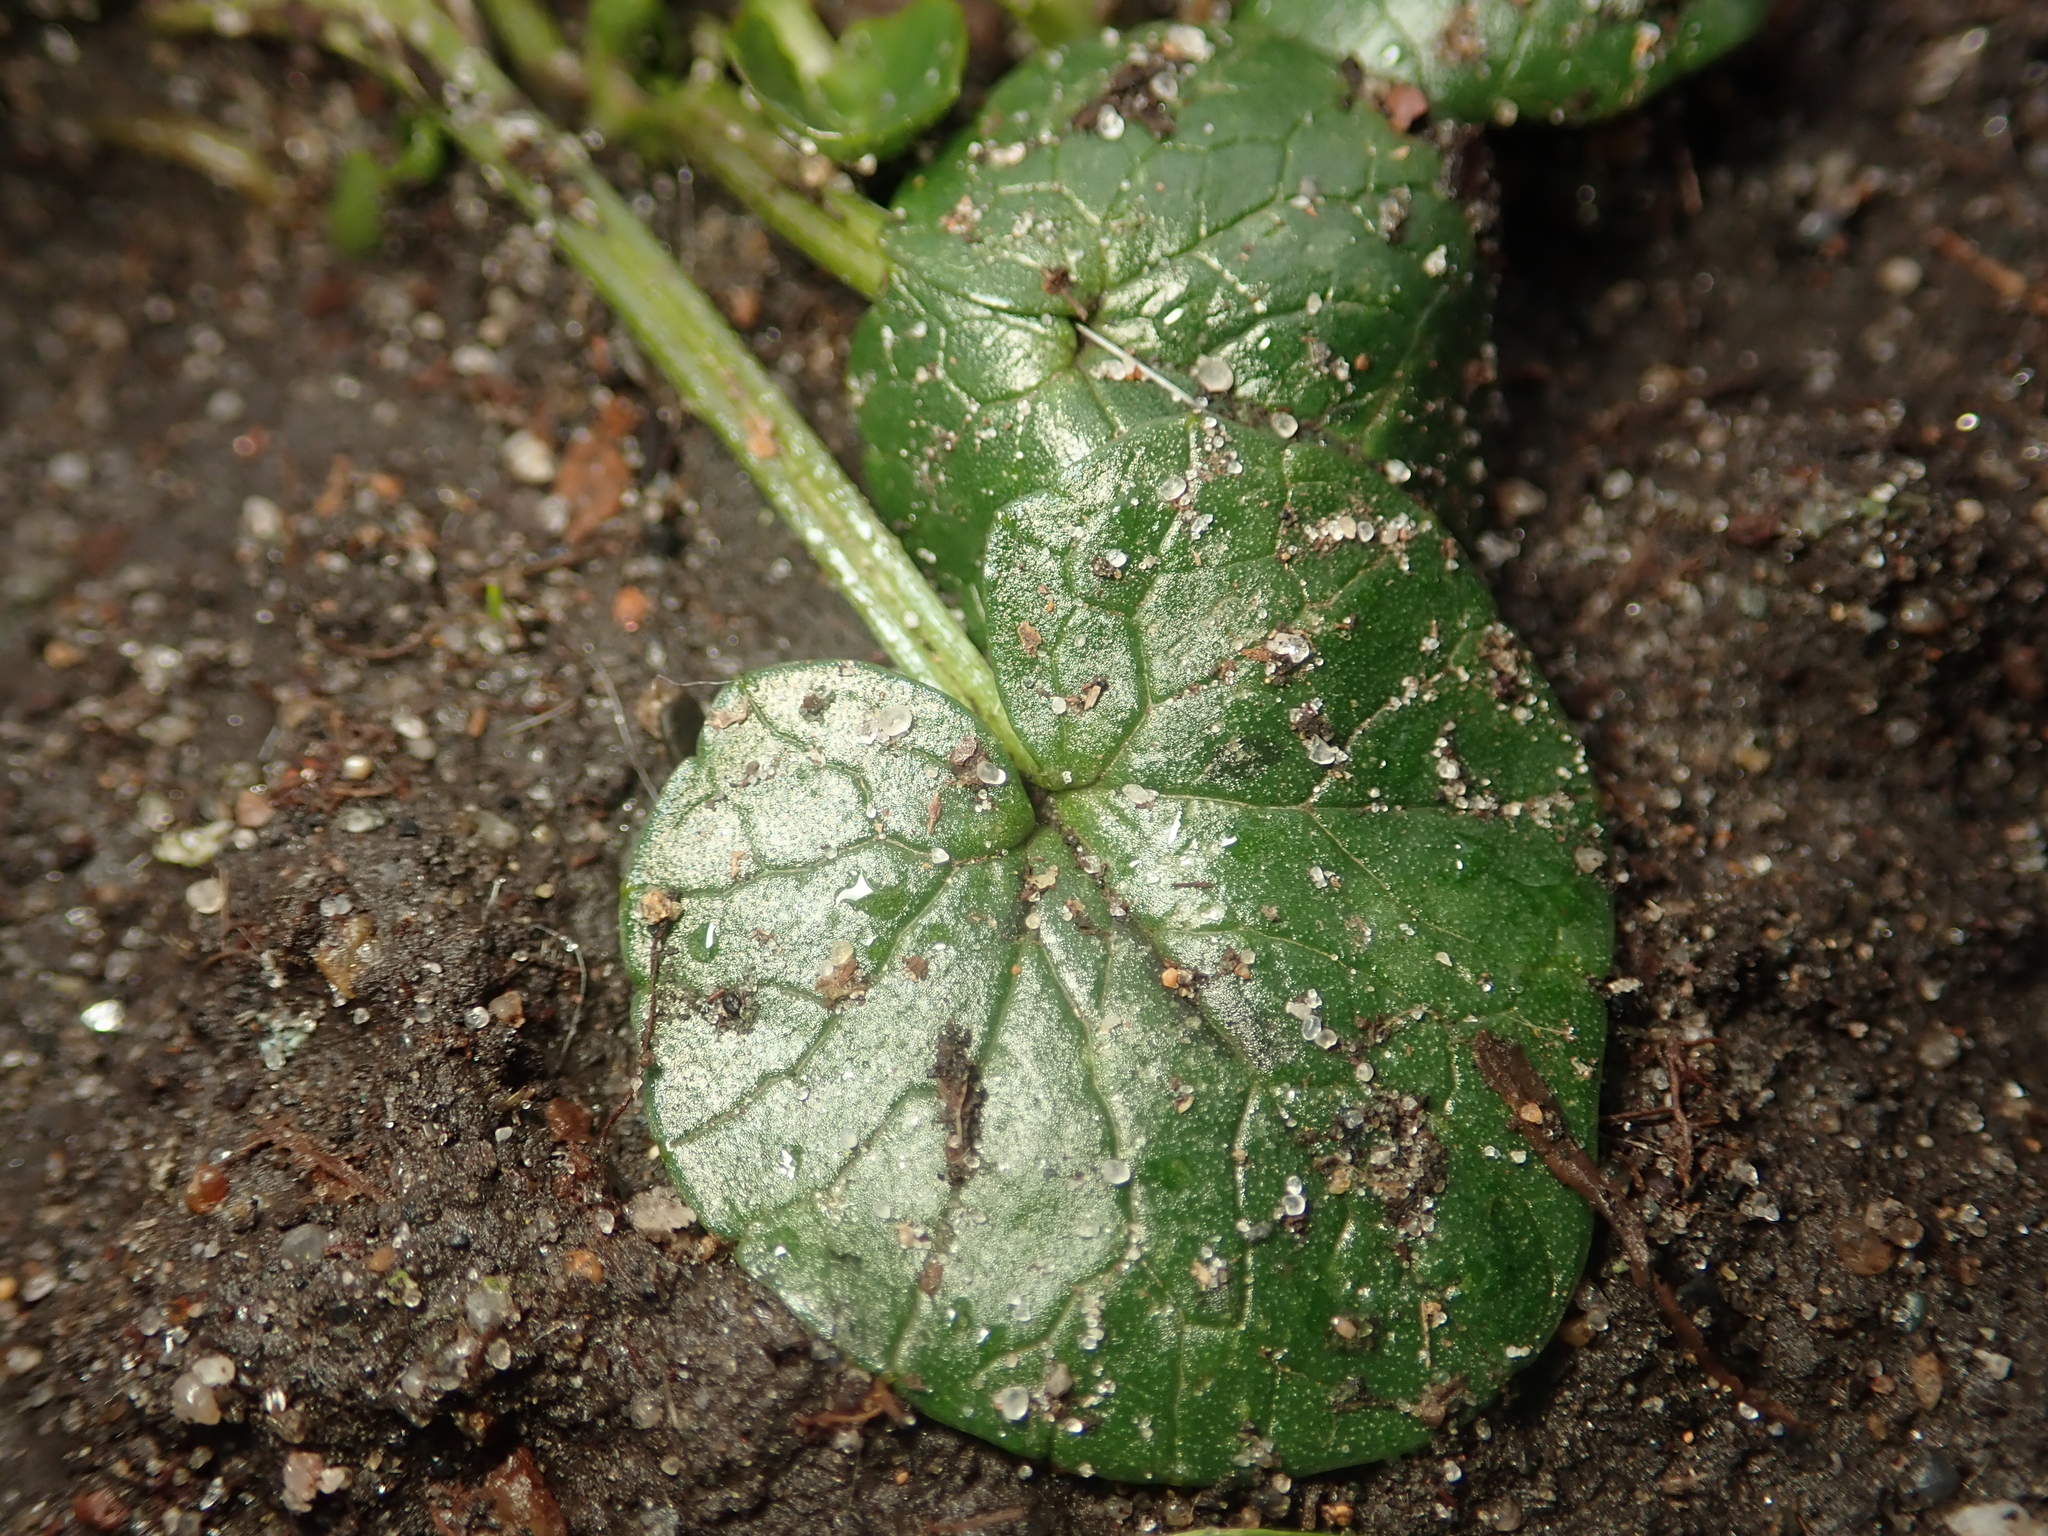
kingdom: Plantae
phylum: Tracheophyta
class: Magnoliopsida
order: Ranunculales
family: Ranunculaceae
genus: Ficaria
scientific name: Ficaria verna
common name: Lesser celandine
